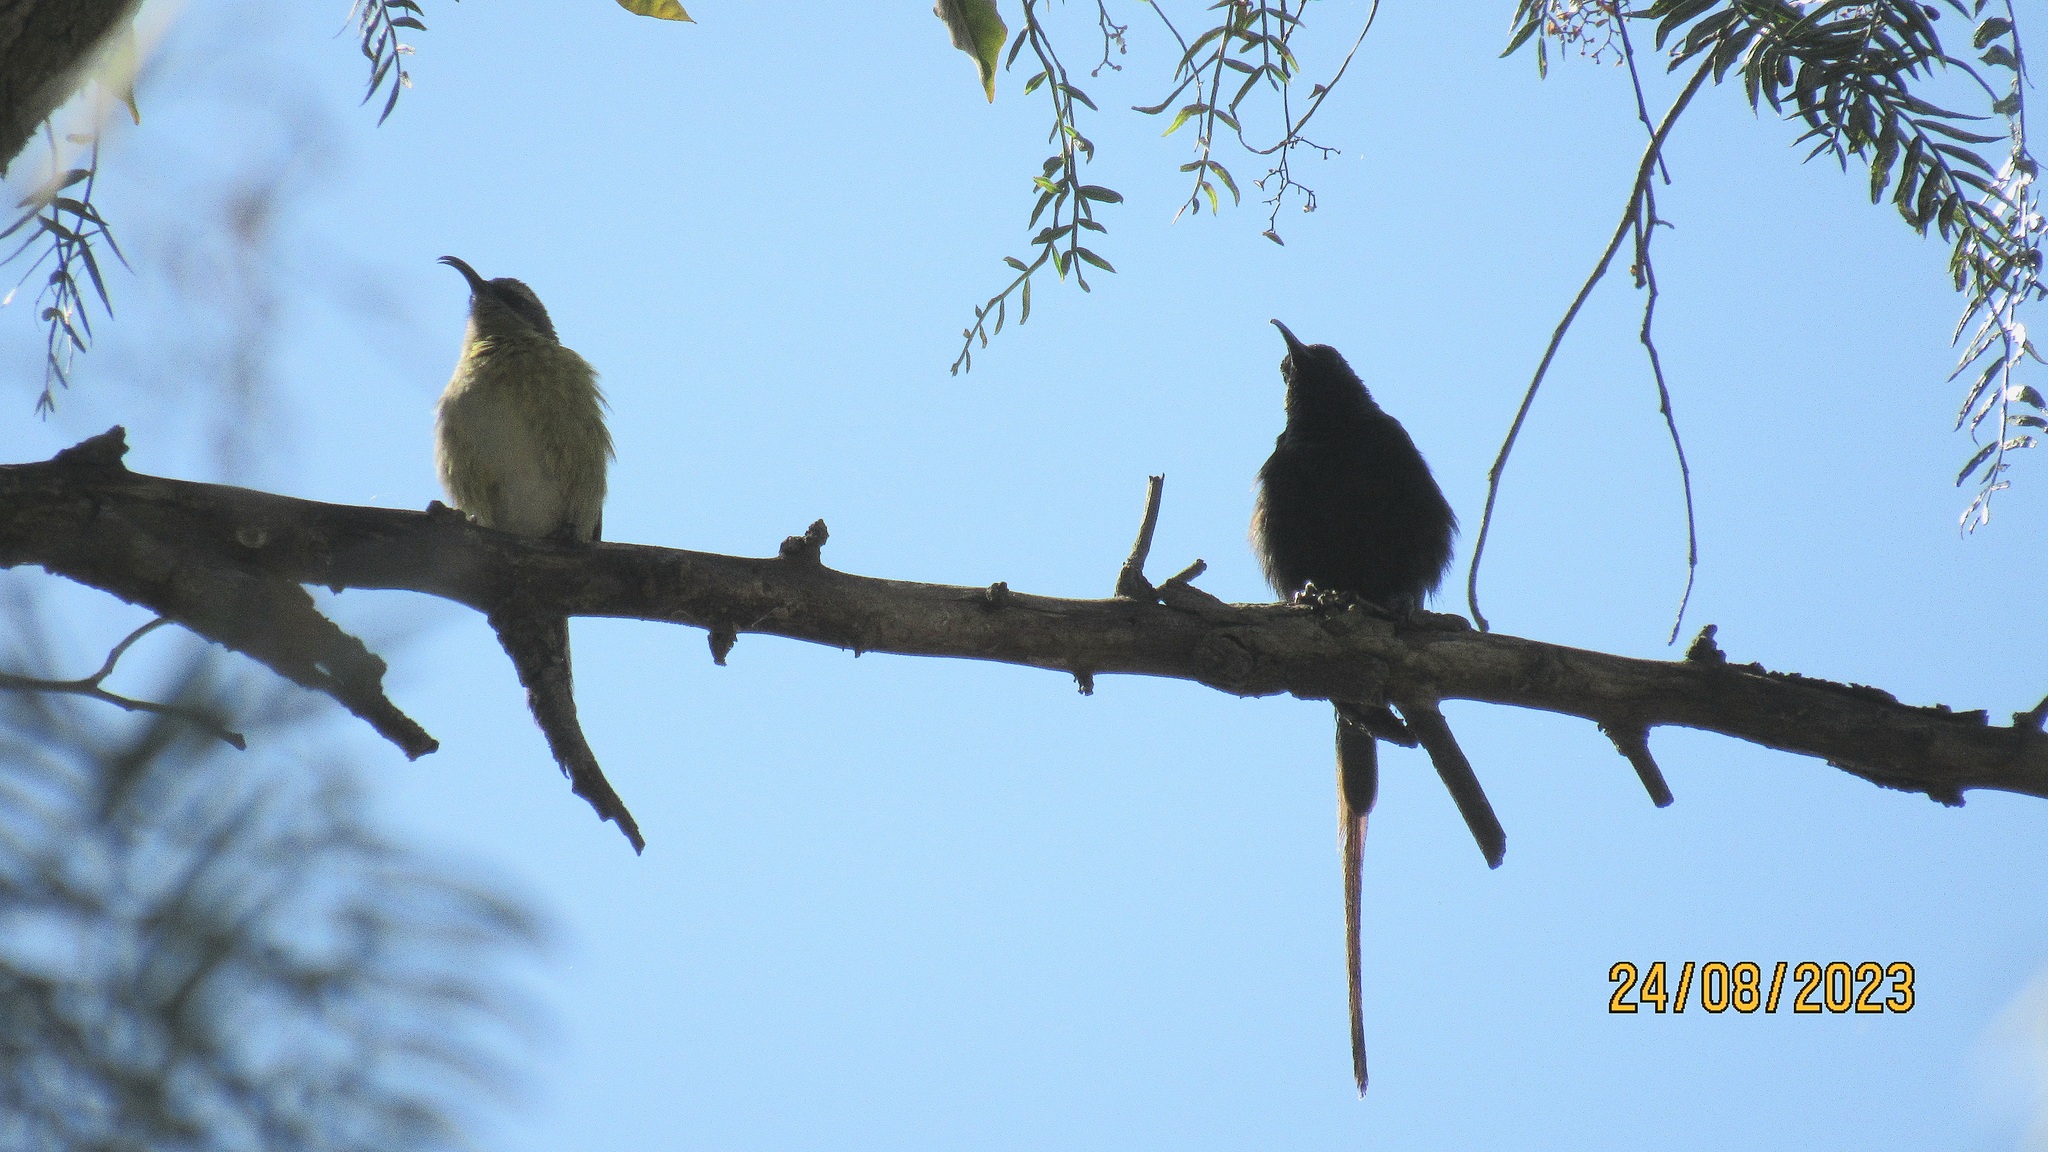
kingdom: Animalia
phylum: Chordata
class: Aves
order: Passeriformes
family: Nectariniidae
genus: Nectarinia
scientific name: Nectarinia kilimensis
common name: Bronzy sunbird
